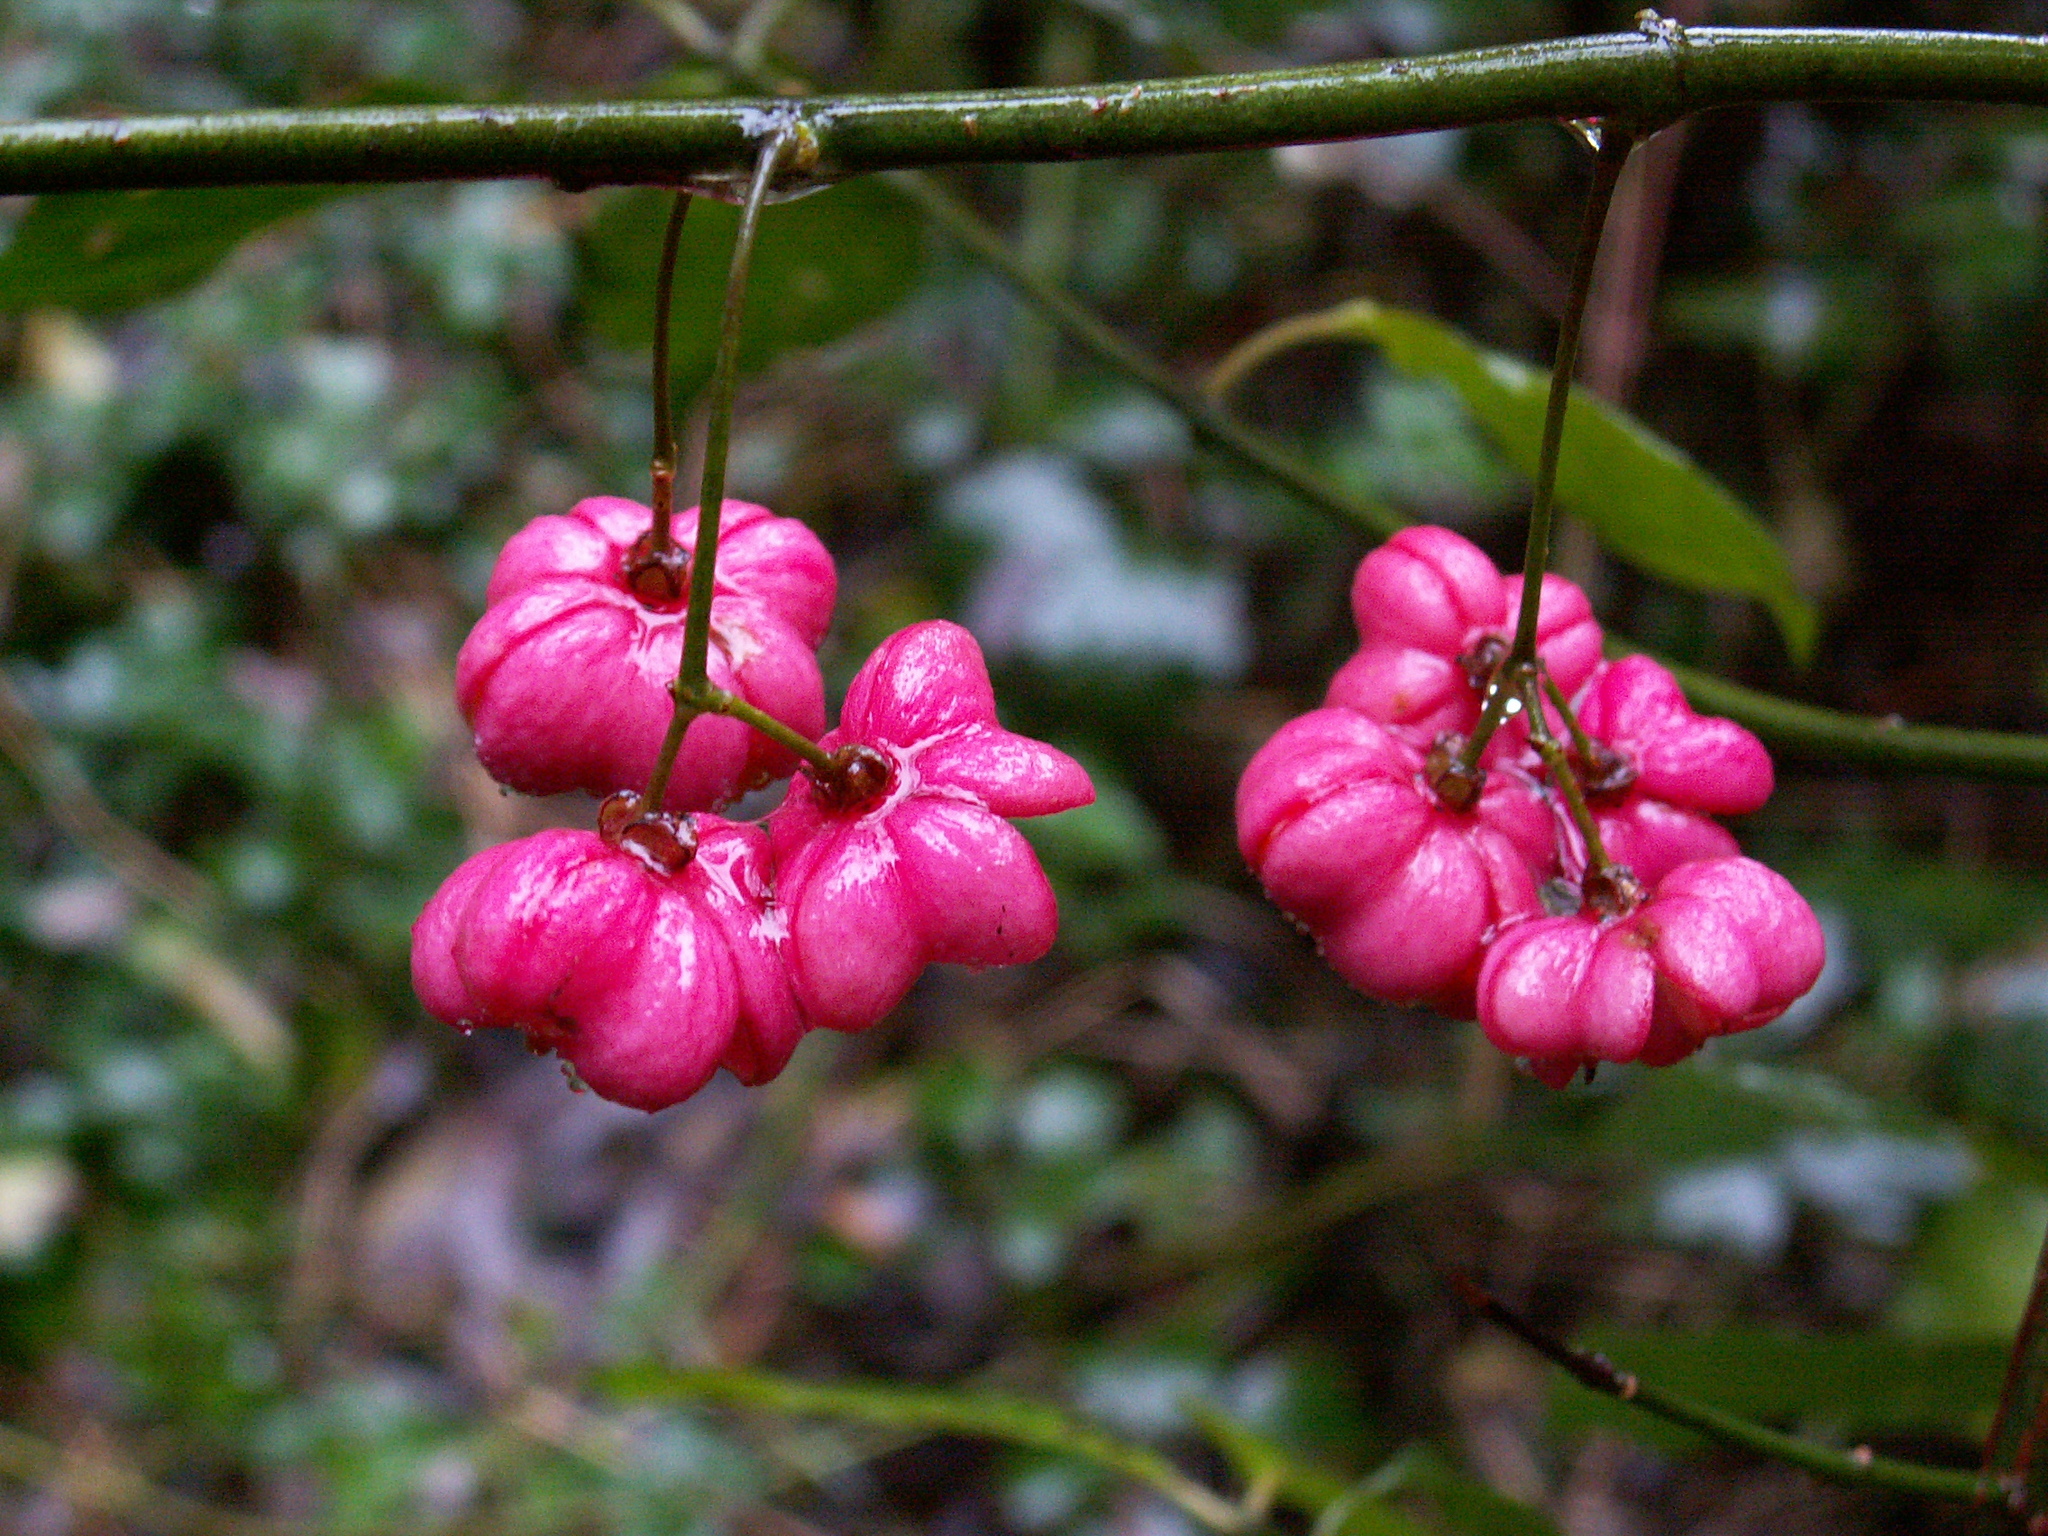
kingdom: Plantae
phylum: Tracheophyta
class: Magnoliopsida
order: Celastrales
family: Celastraceae
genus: Euonymus
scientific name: Euonymus europaeus
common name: Spindle
